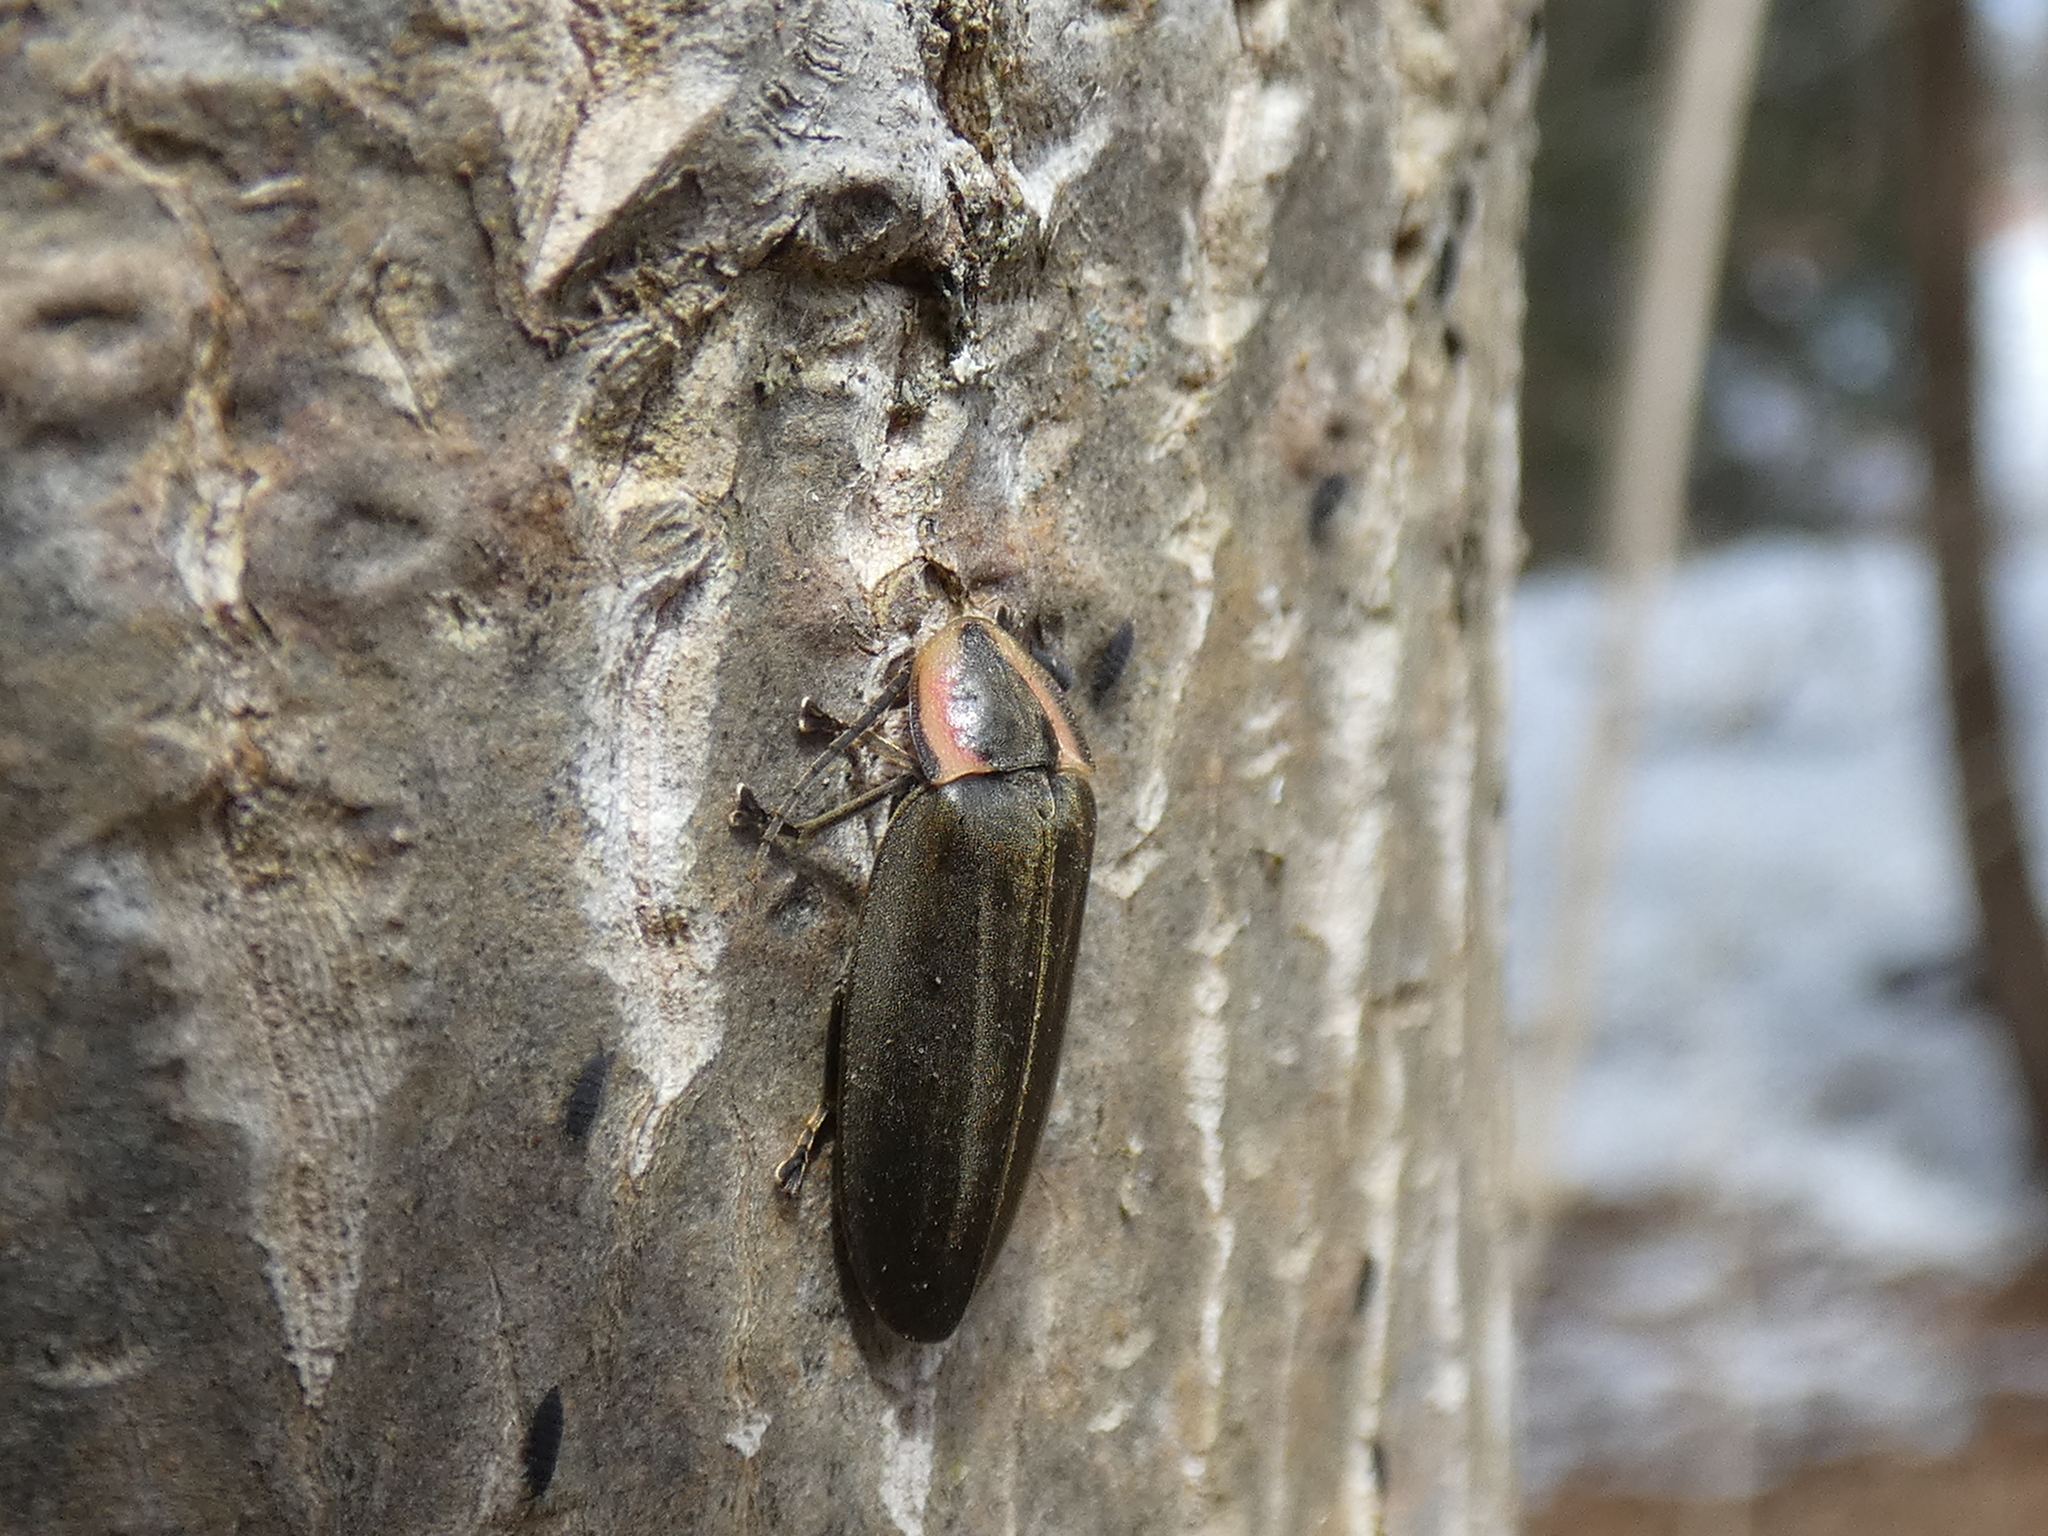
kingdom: Animalia
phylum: Arthropoda
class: Insecta
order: Coleoptera
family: Lampyridae
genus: Photinus
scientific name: Photinus corrusca
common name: Winter firefly
